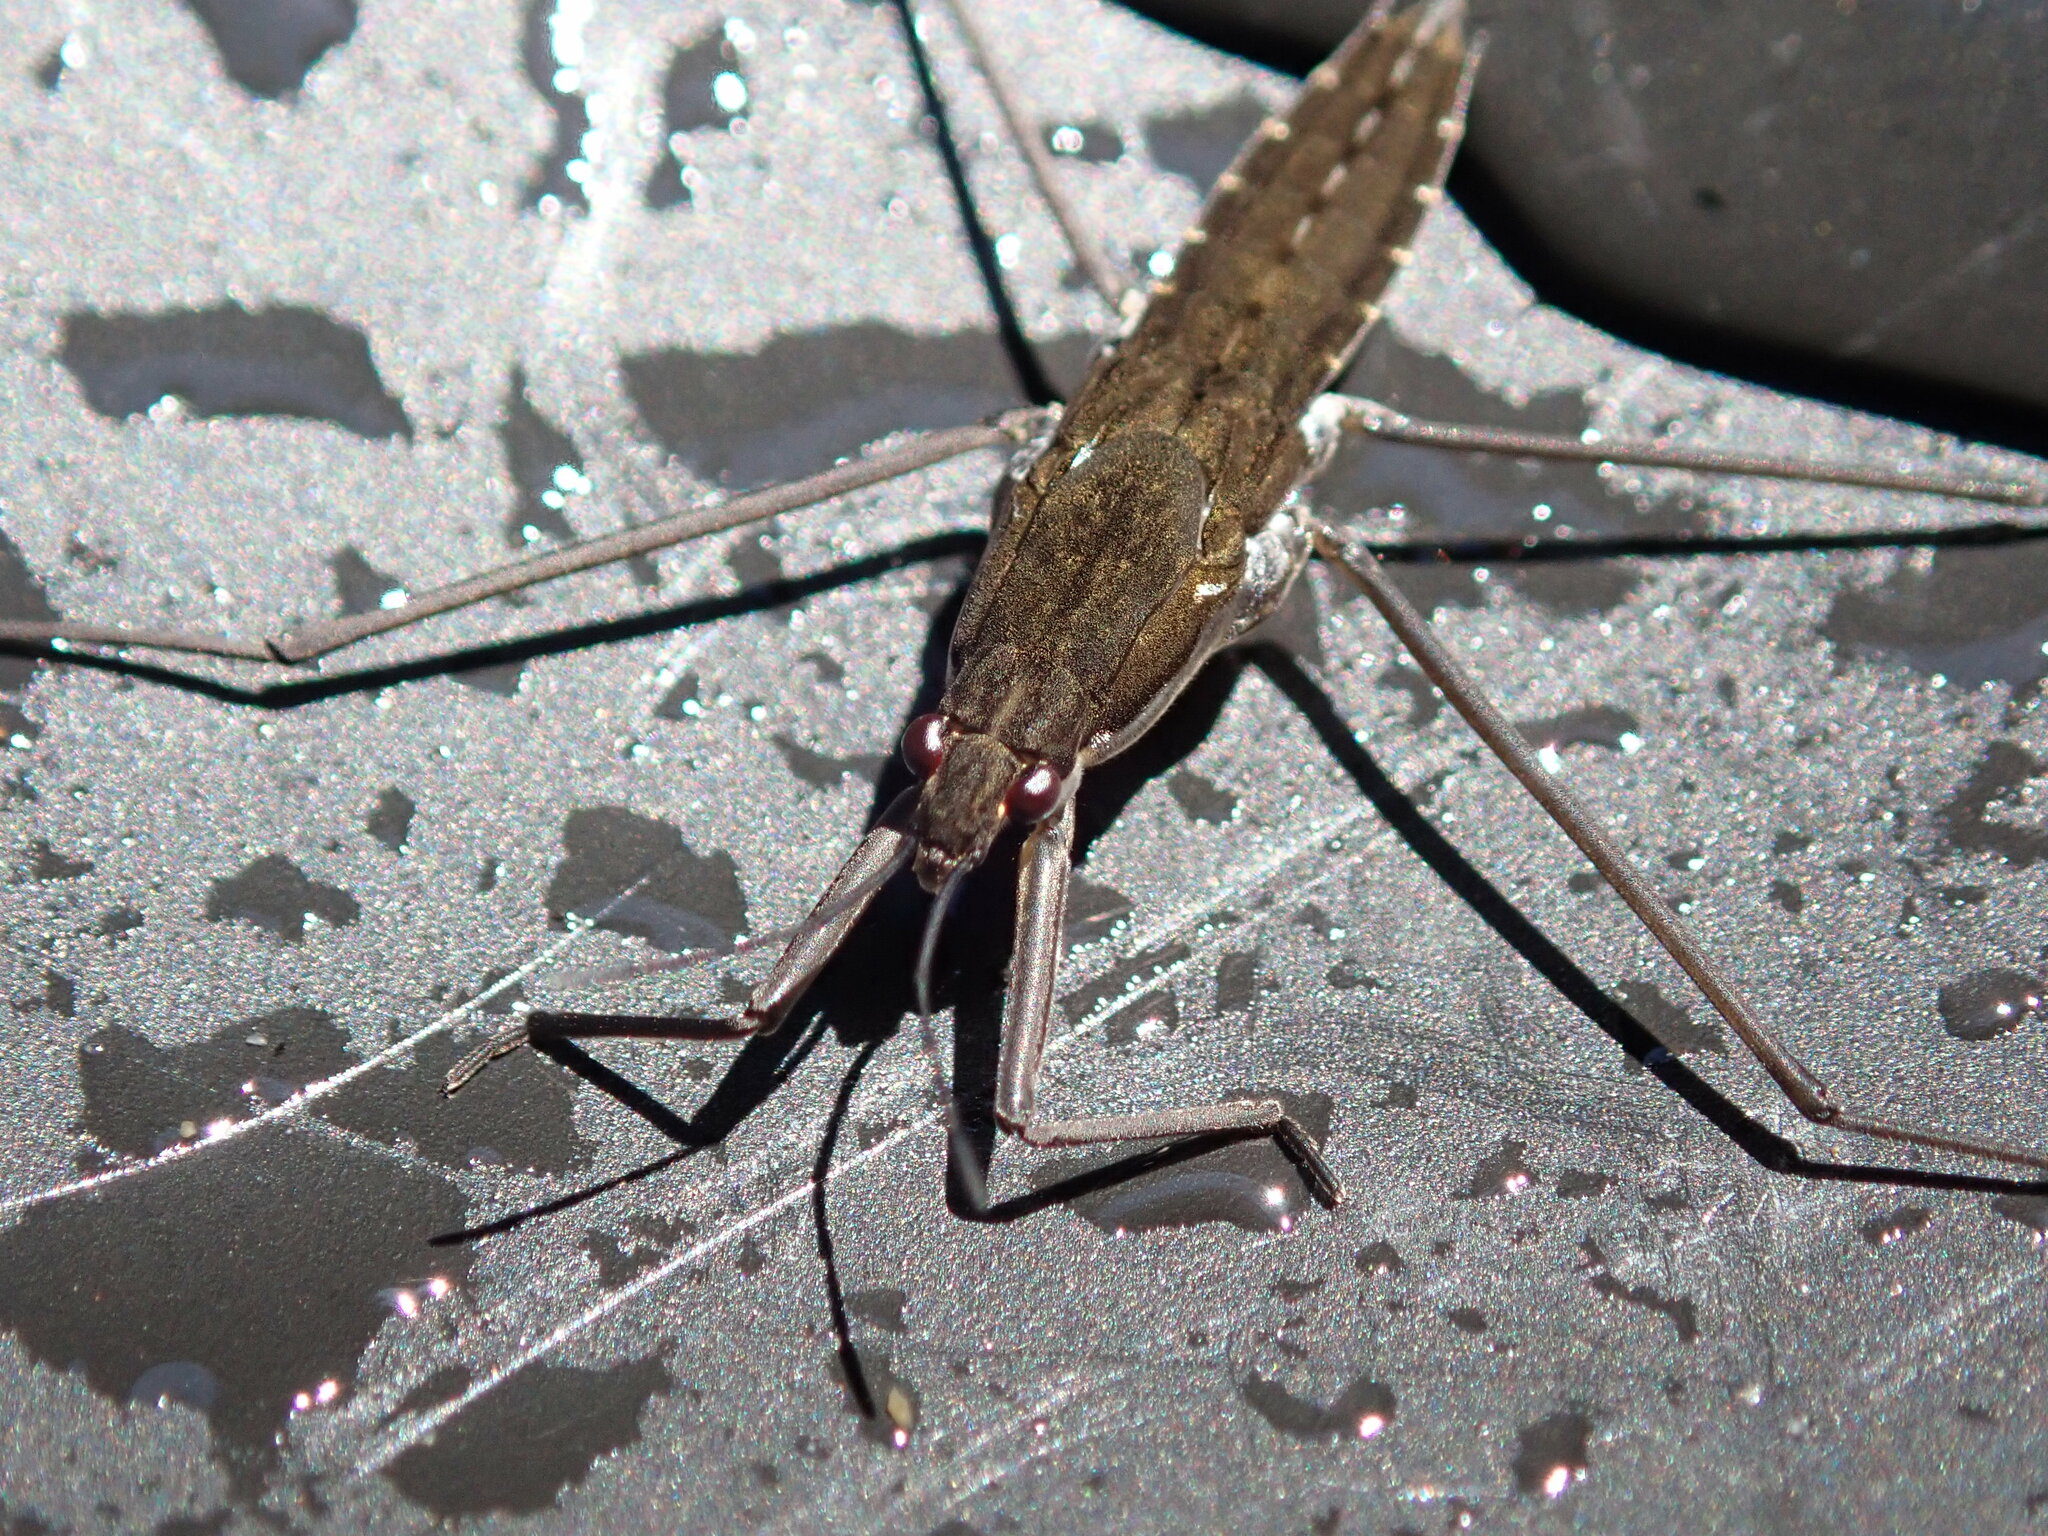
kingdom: Animalia
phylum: Arthropoda
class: Insecta
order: Hemiptera
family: Gerridae
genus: Aquarius
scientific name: Aquarius remigis
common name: Common water strider
